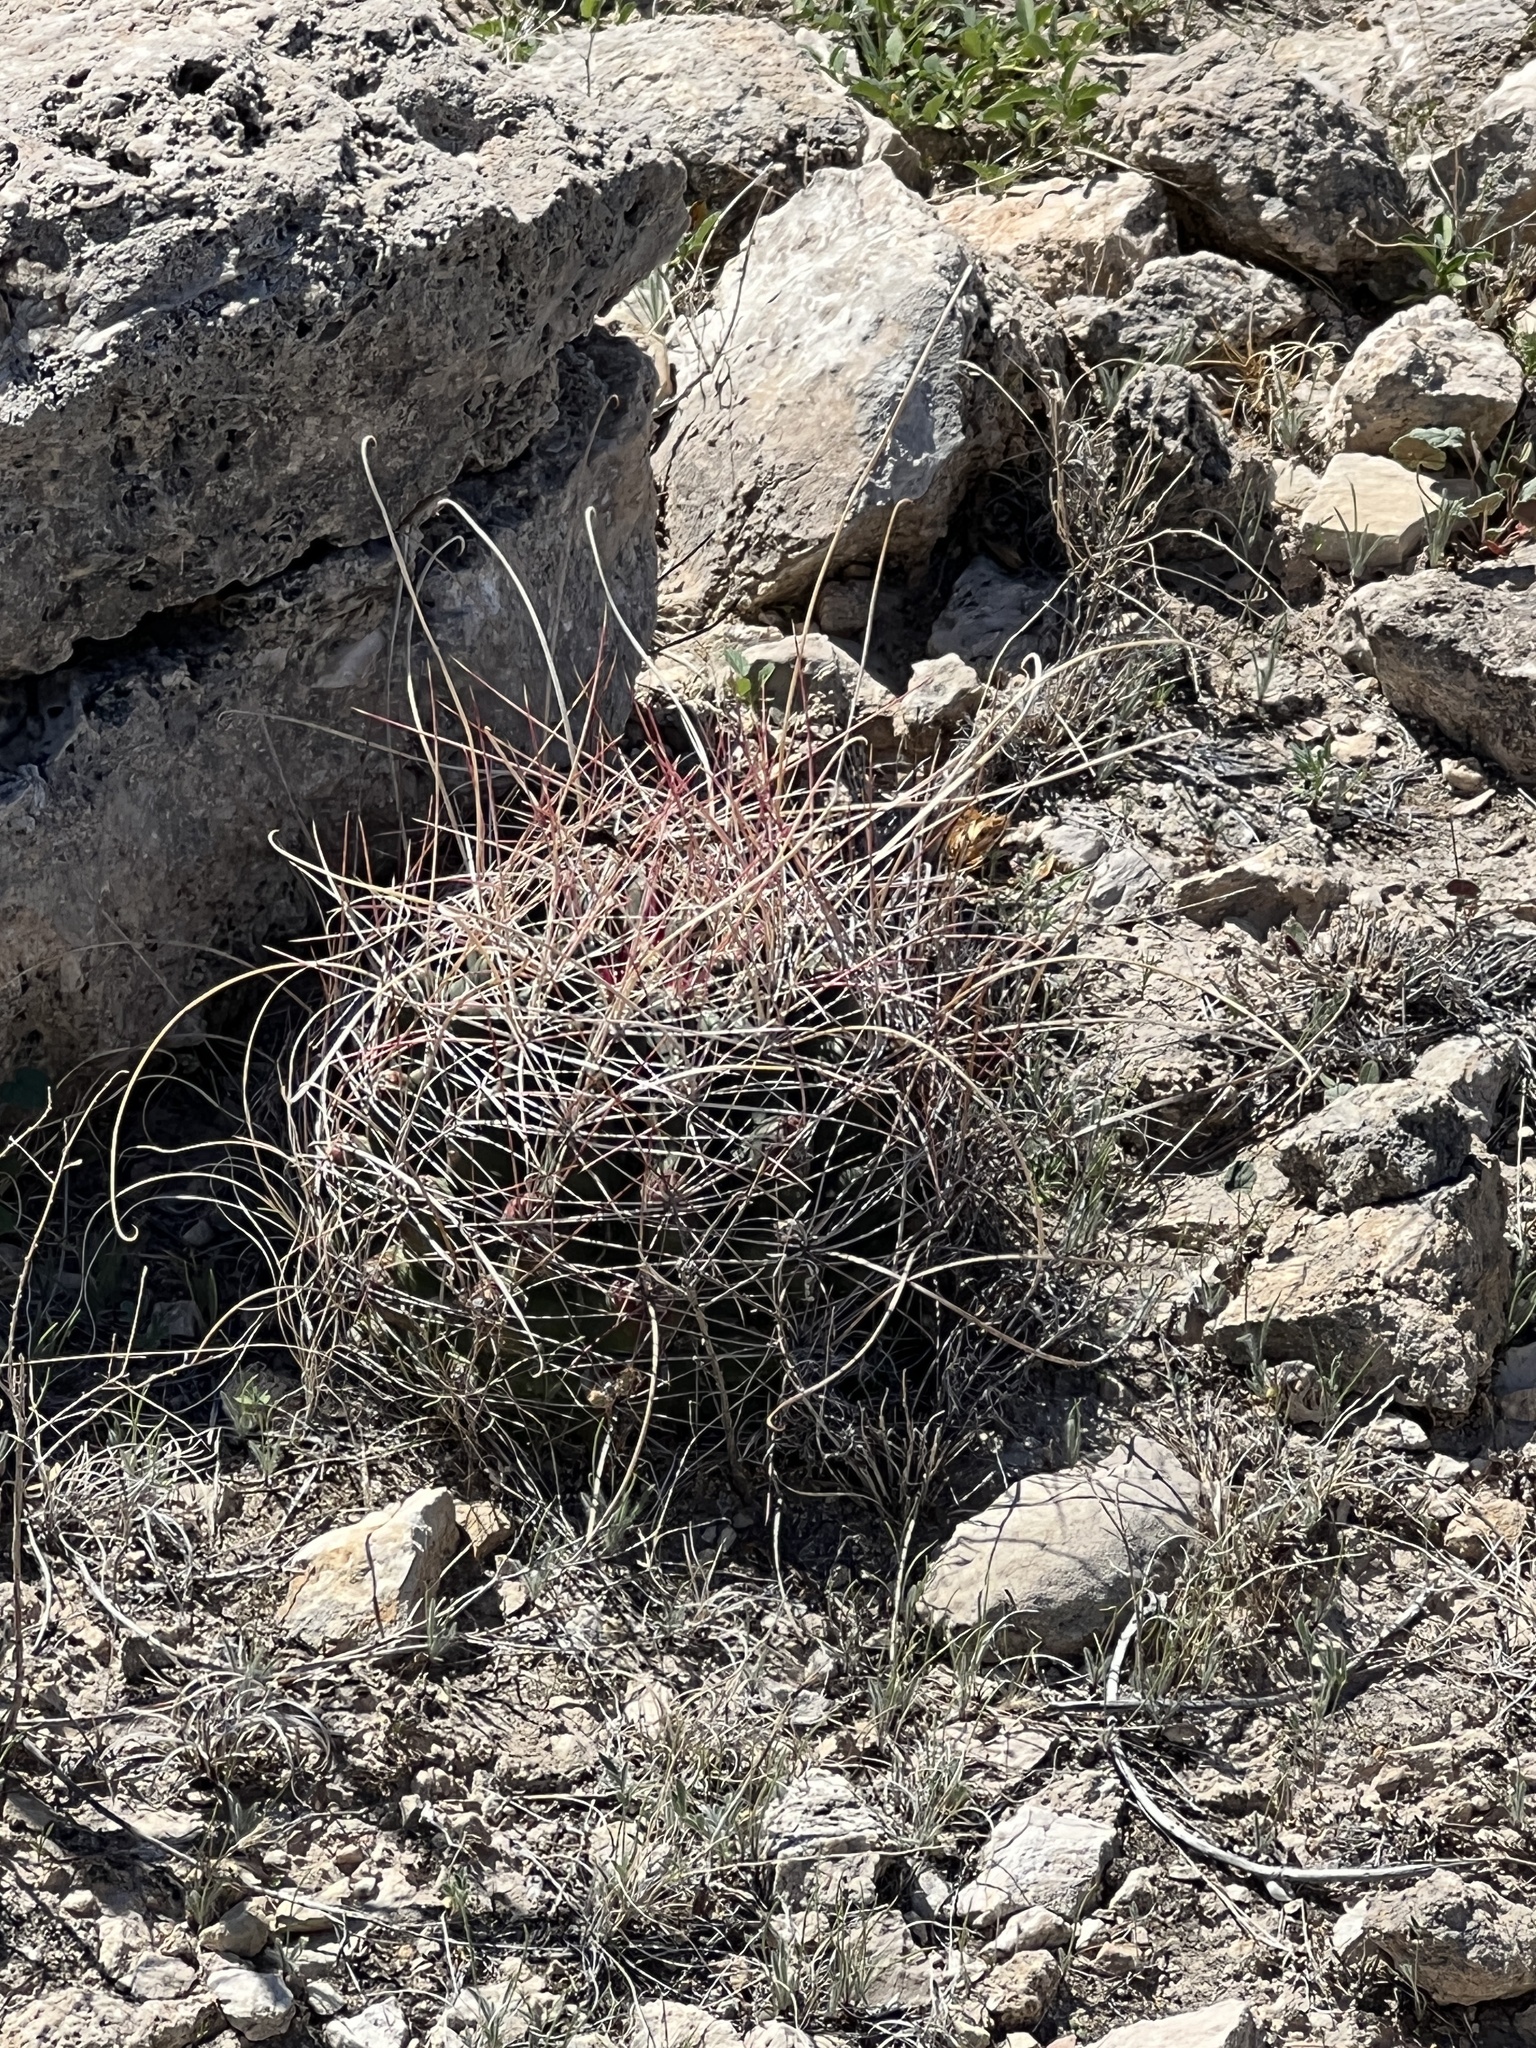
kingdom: Plantae
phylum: Tracheophyta
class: Magnoliopsida
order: Caryophyllales
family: Cactaceae
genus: Bisnaga
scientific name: Bisnaga hamatacantha
